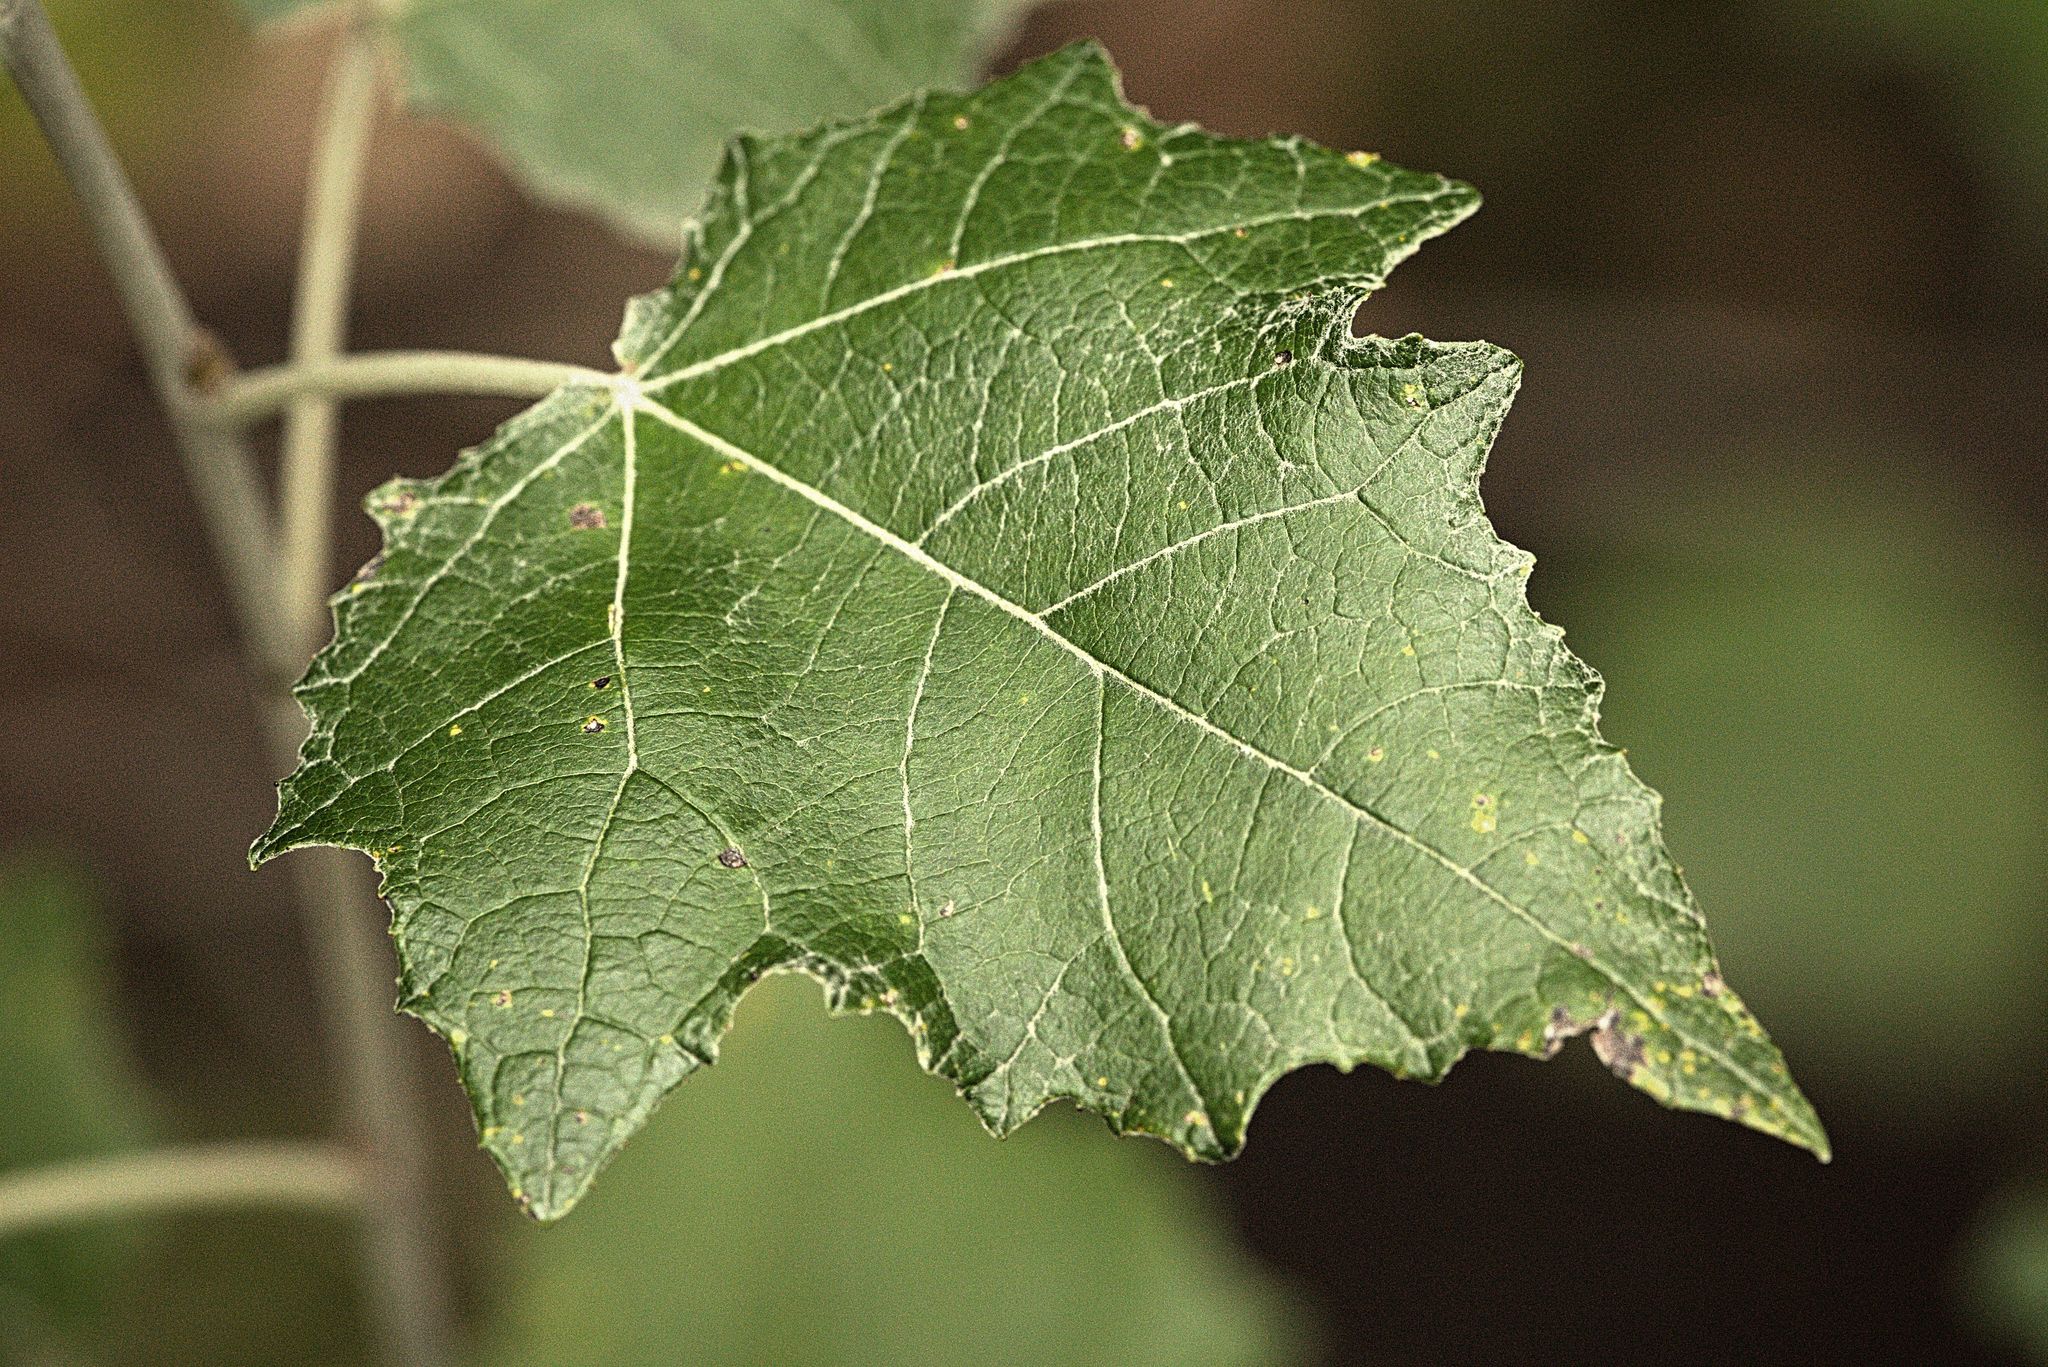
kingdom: Plantae
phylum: Tracheophyta
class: Magnoliopsida
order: Malpighiales
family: Salicaceae
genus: Populus
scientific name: Populus alba
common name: White poplar
